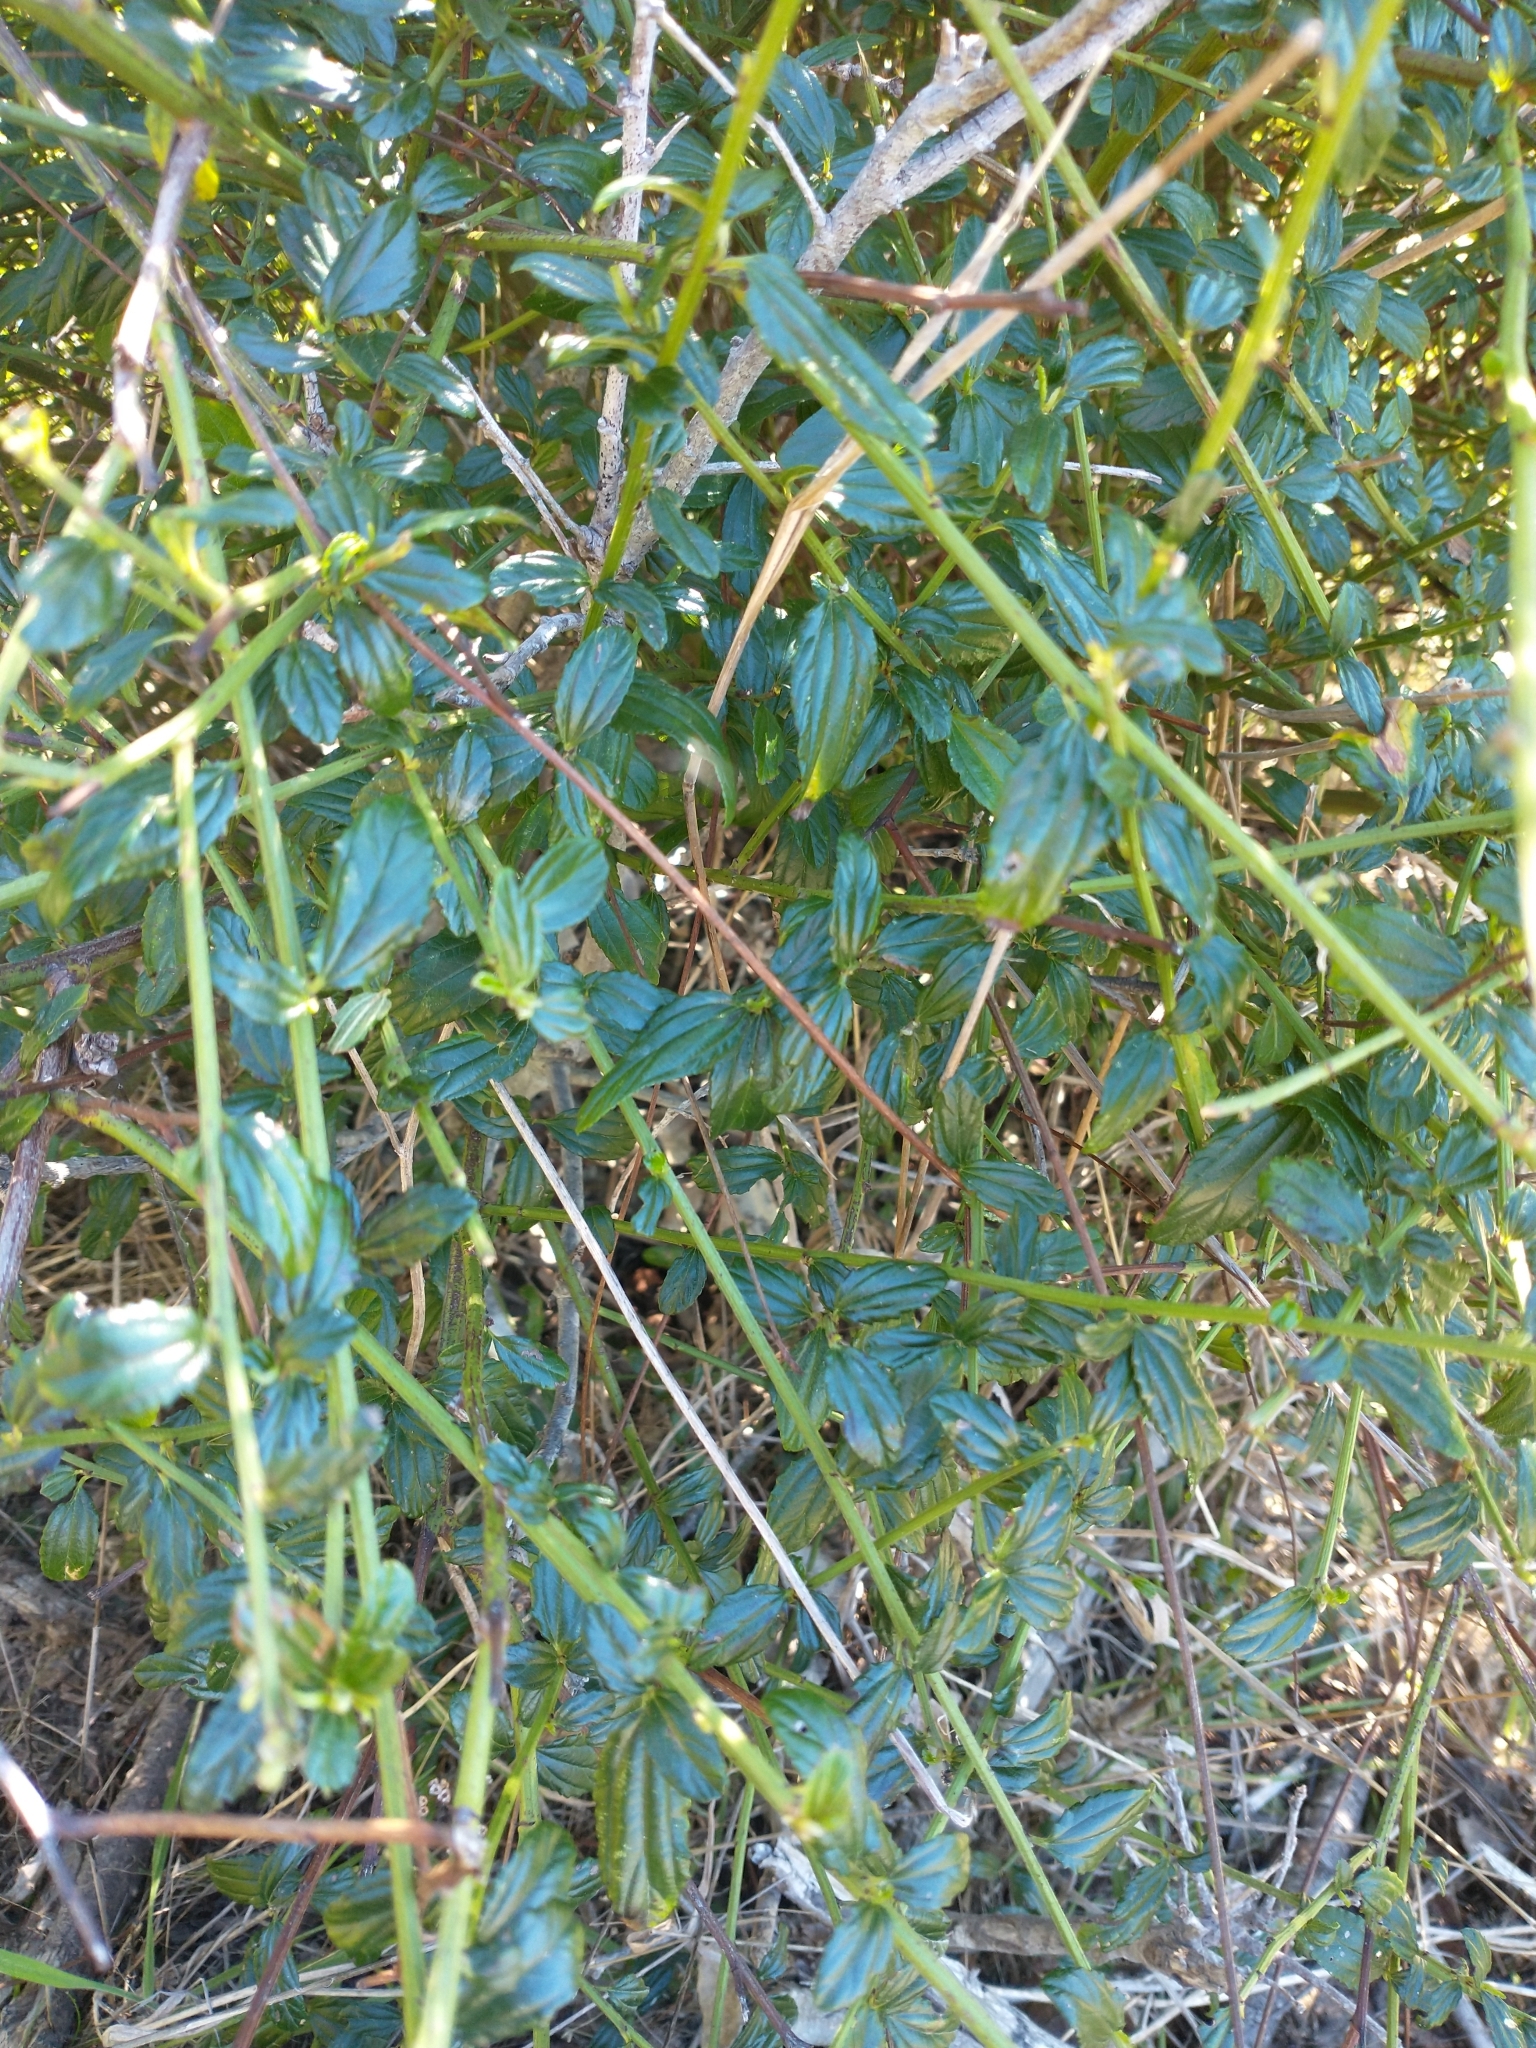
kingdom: Plantae
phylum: Tracheophyta
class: Magnoliopsida
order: Rosales
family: Rhamnaceae
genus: Ceanothus
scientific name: Ceanothus thyrsiflorus
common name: California-lilac
